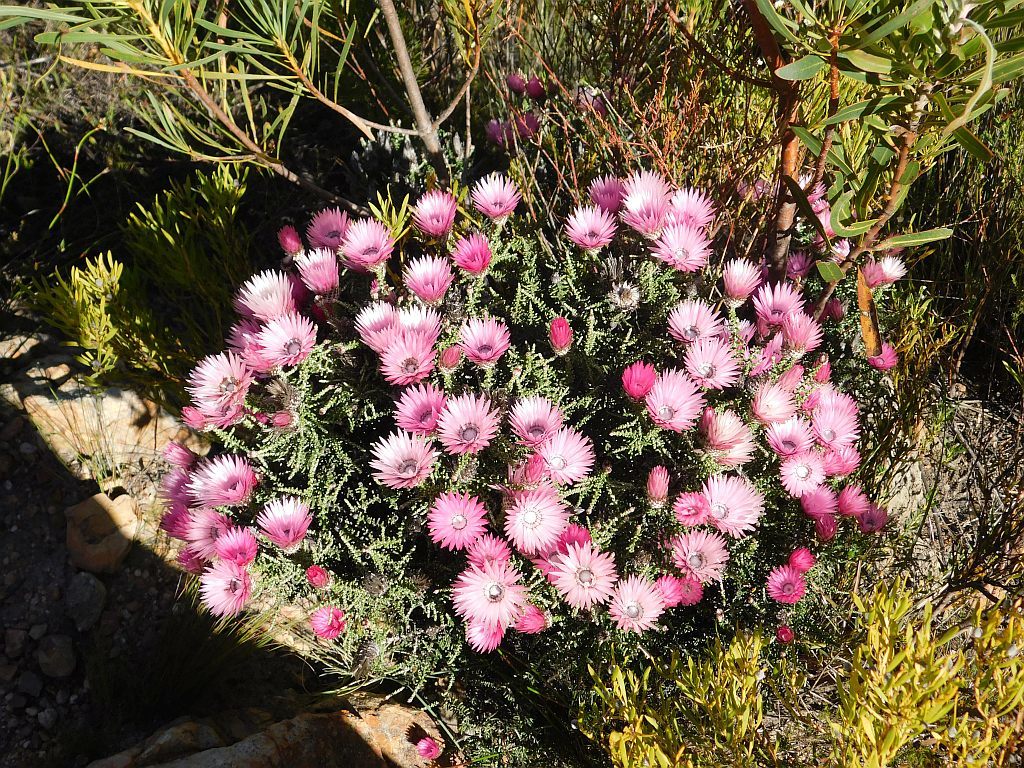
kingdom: Plantae
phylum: Tracheophyta
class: Magnoliopsida
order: Asterales
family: Asteraceae
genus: Phaenocoma
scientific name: Phaenocoma prolifera
